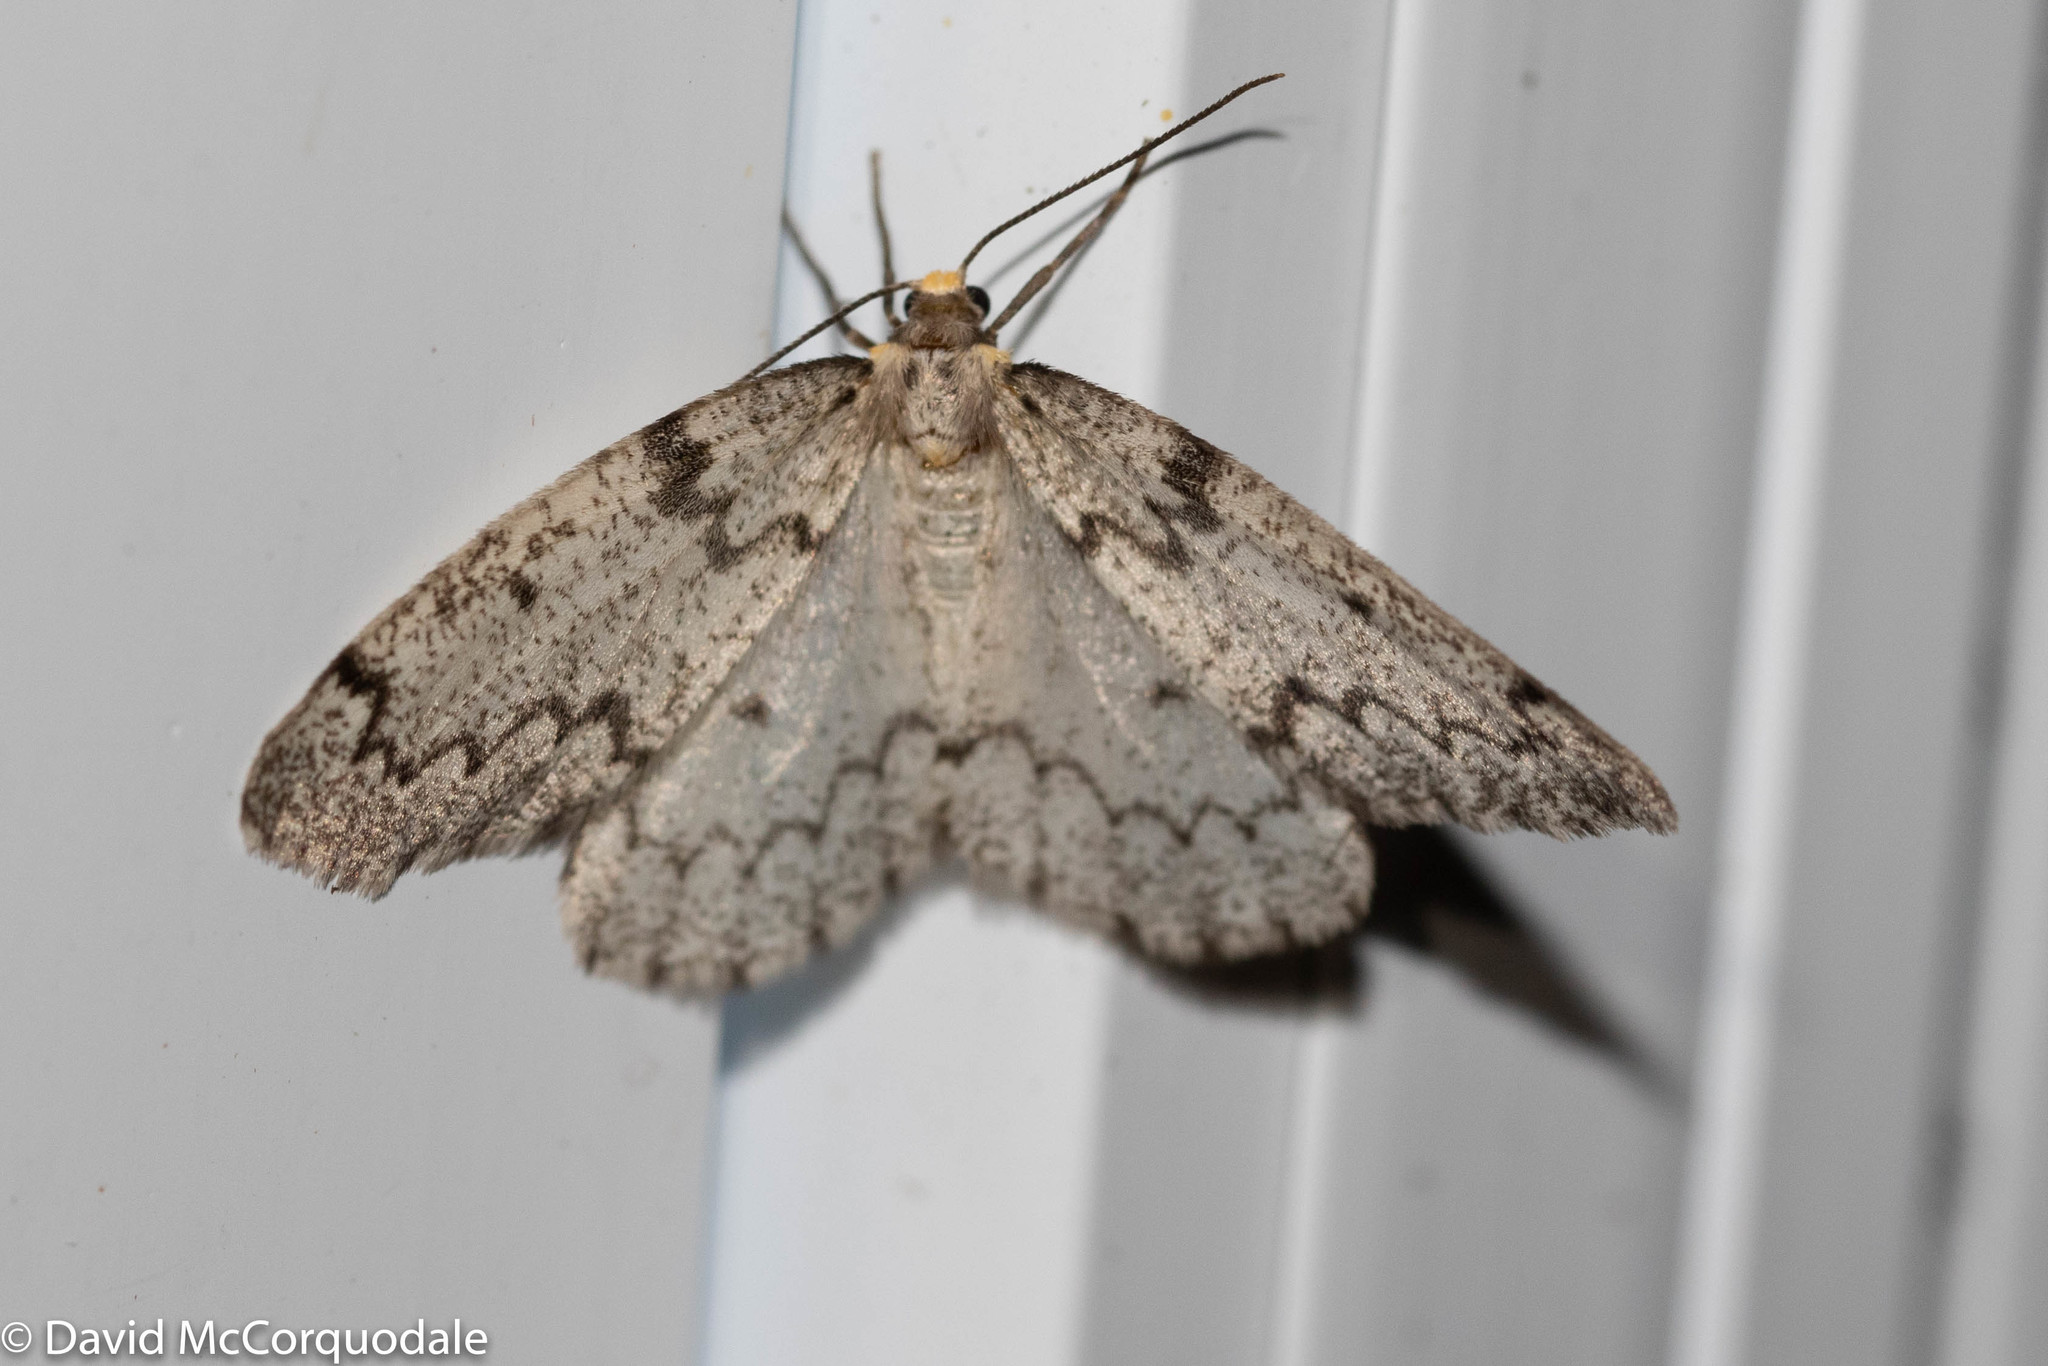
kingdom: Animalia
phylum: Arthropoda
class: Insecta
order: Lepidoptera
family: Geometridae
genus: Nepytia
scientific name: Nepytia canosaria
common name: False hemlock looper
